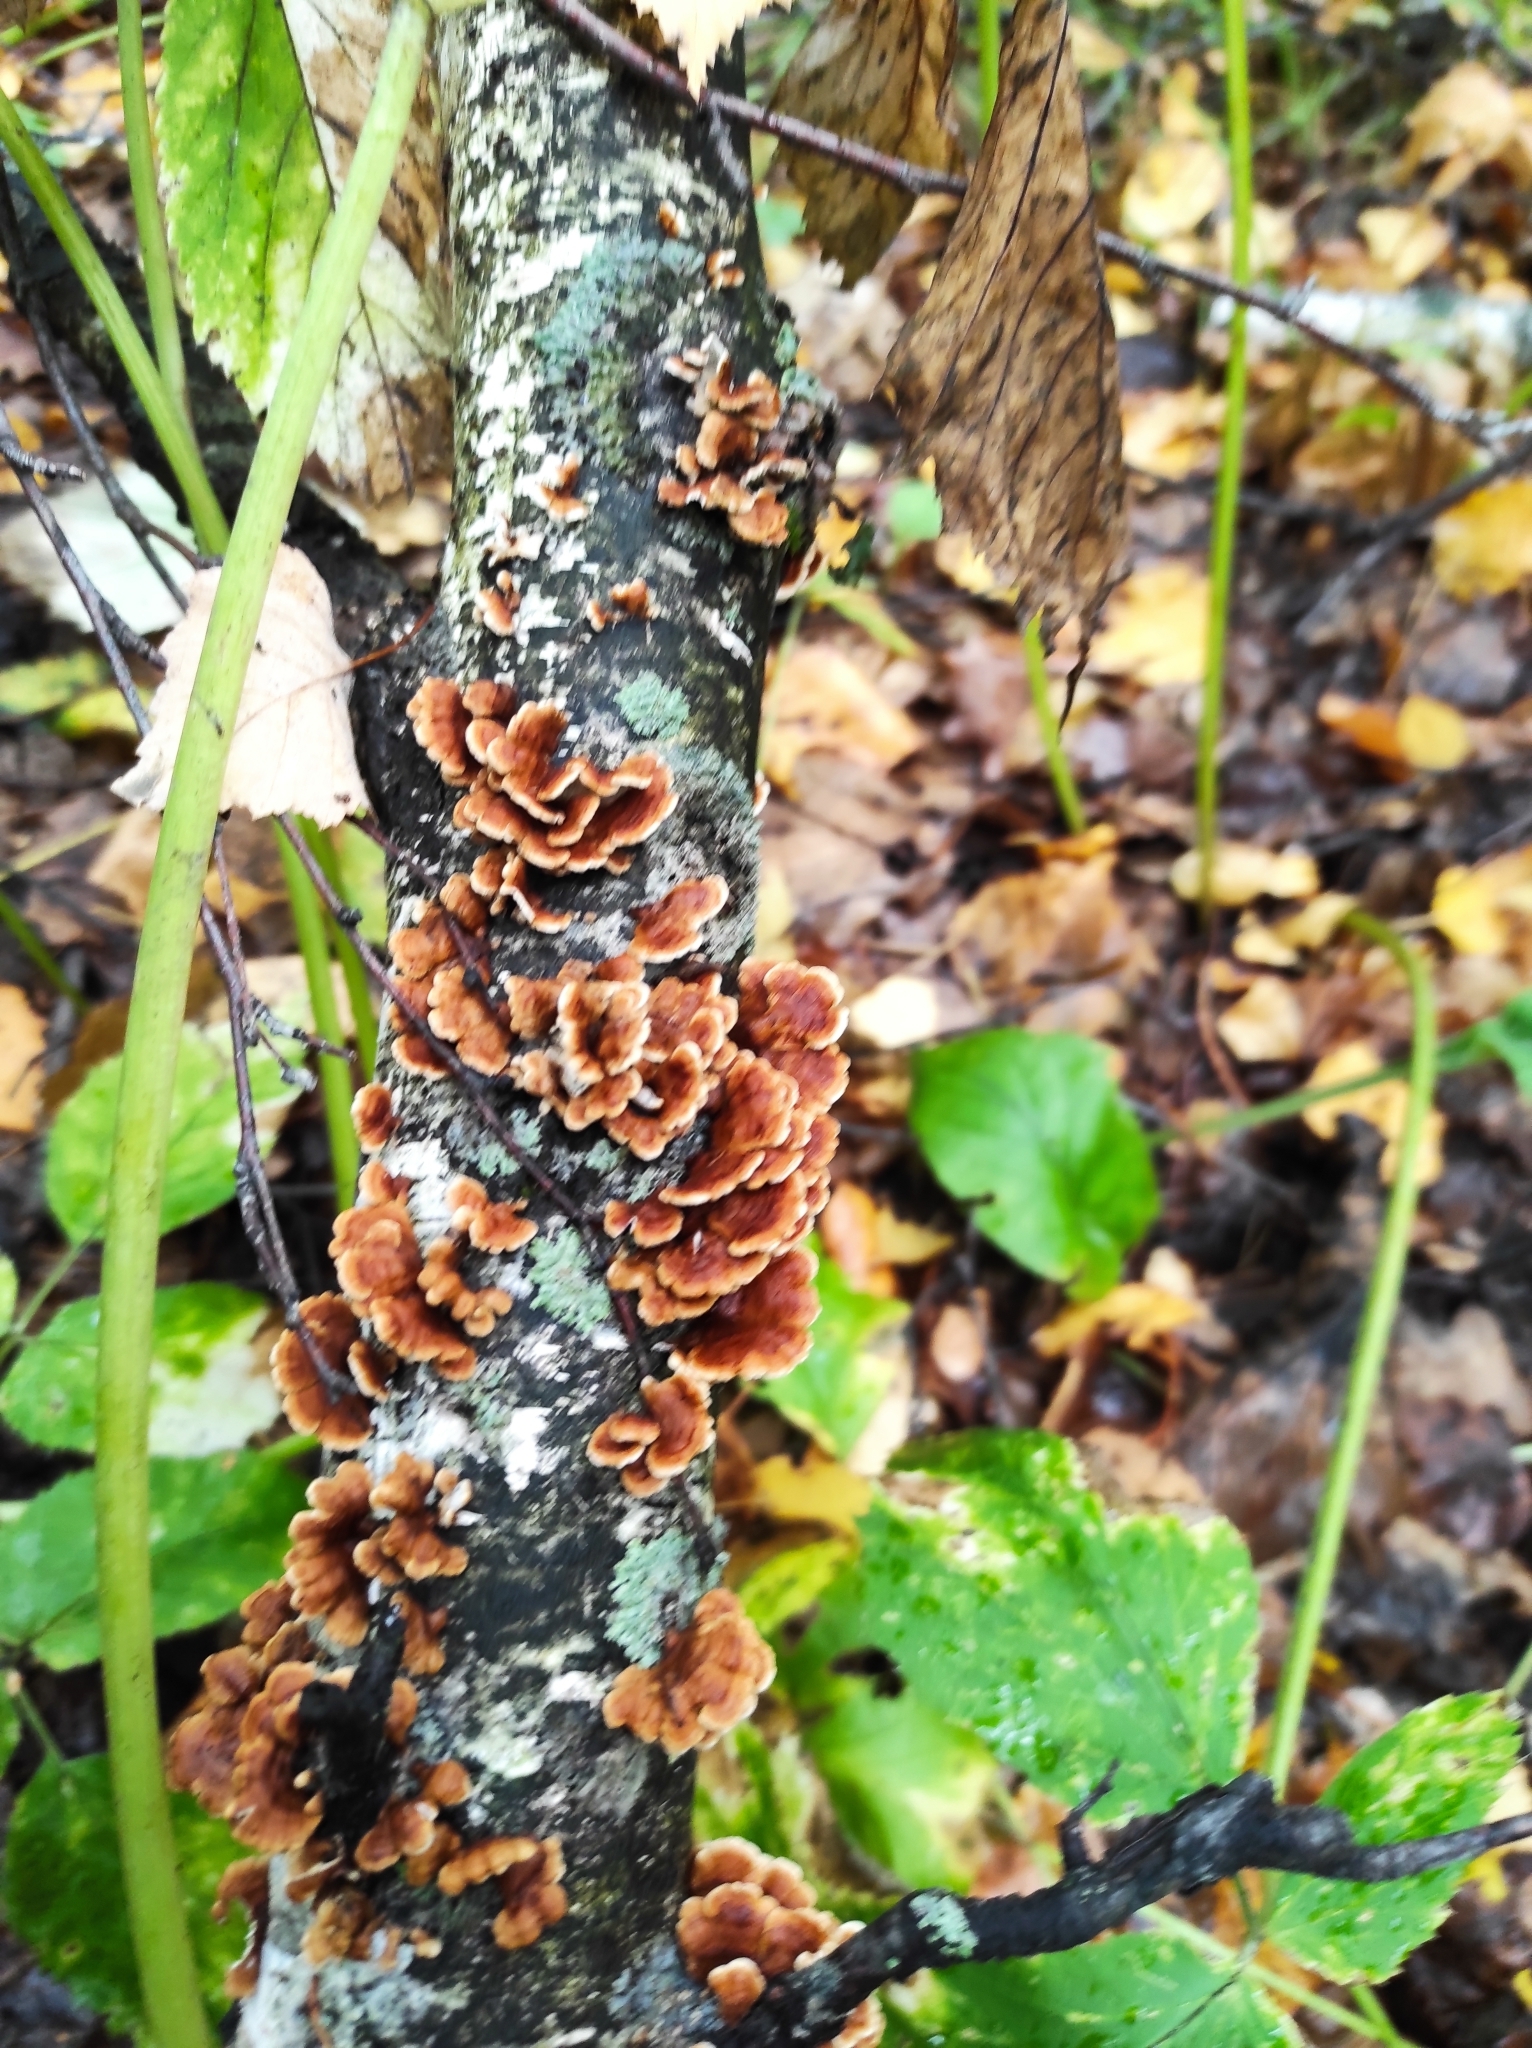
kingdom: Fungi
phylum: Basidiomycota
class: Agaricomycetes
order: Amylocorticiales
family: Amylocorticiaceae
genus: Plicaturopsis
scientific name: Plicaturopsis crispa
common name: Crimped gill
